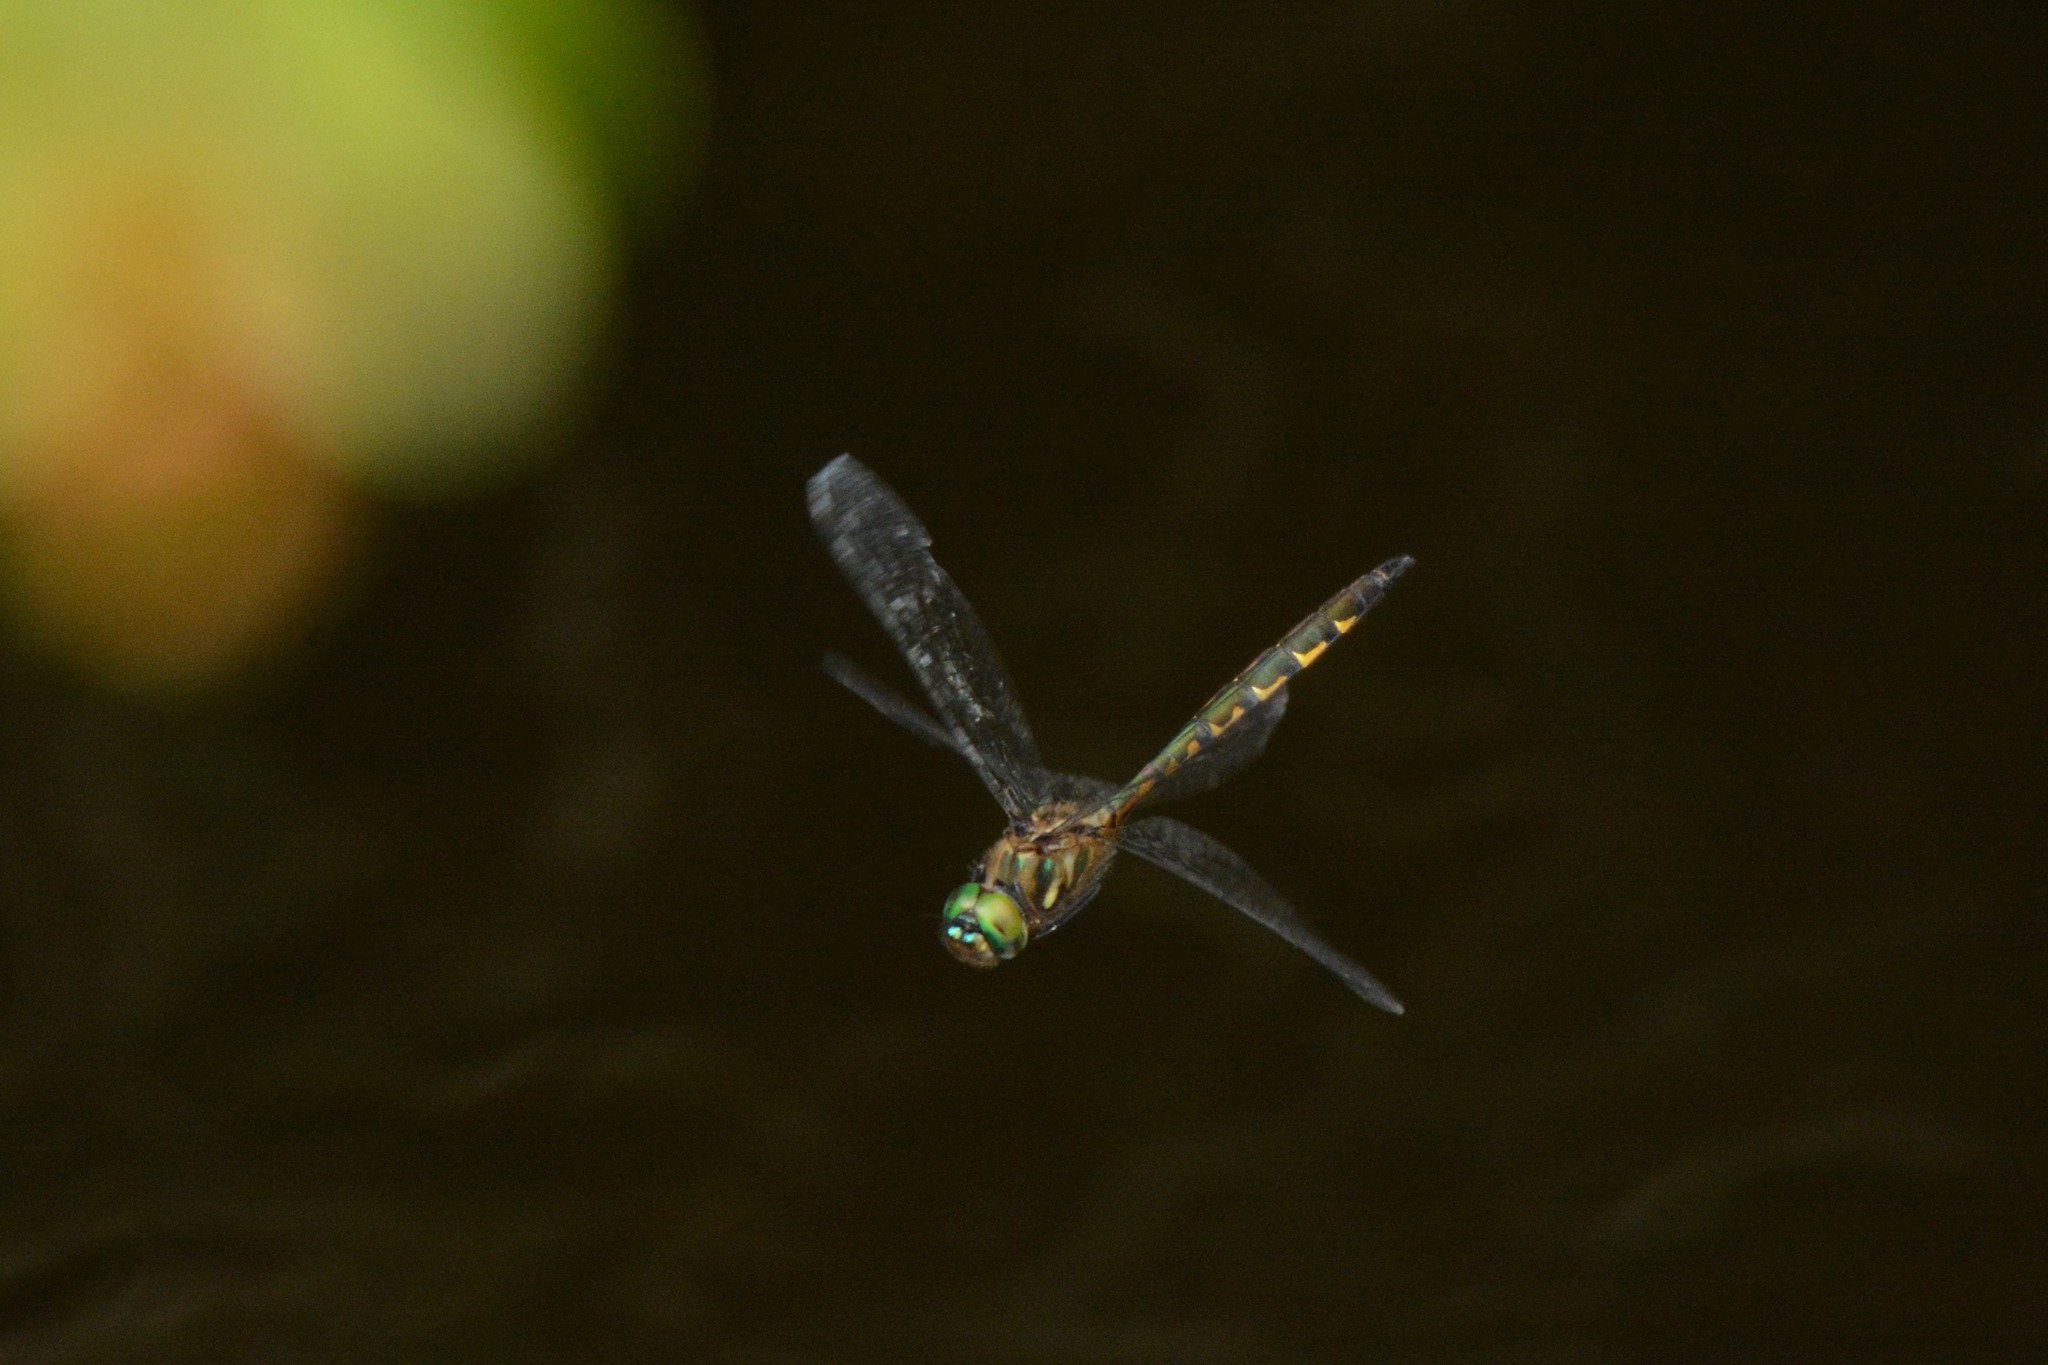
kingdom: Animalia
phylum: Arthropoda
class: Insecta
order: Odonata
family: Corduliidae
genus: Hemicordulia
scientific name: Hemicordulia australiae
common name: Sentry dragonfly
